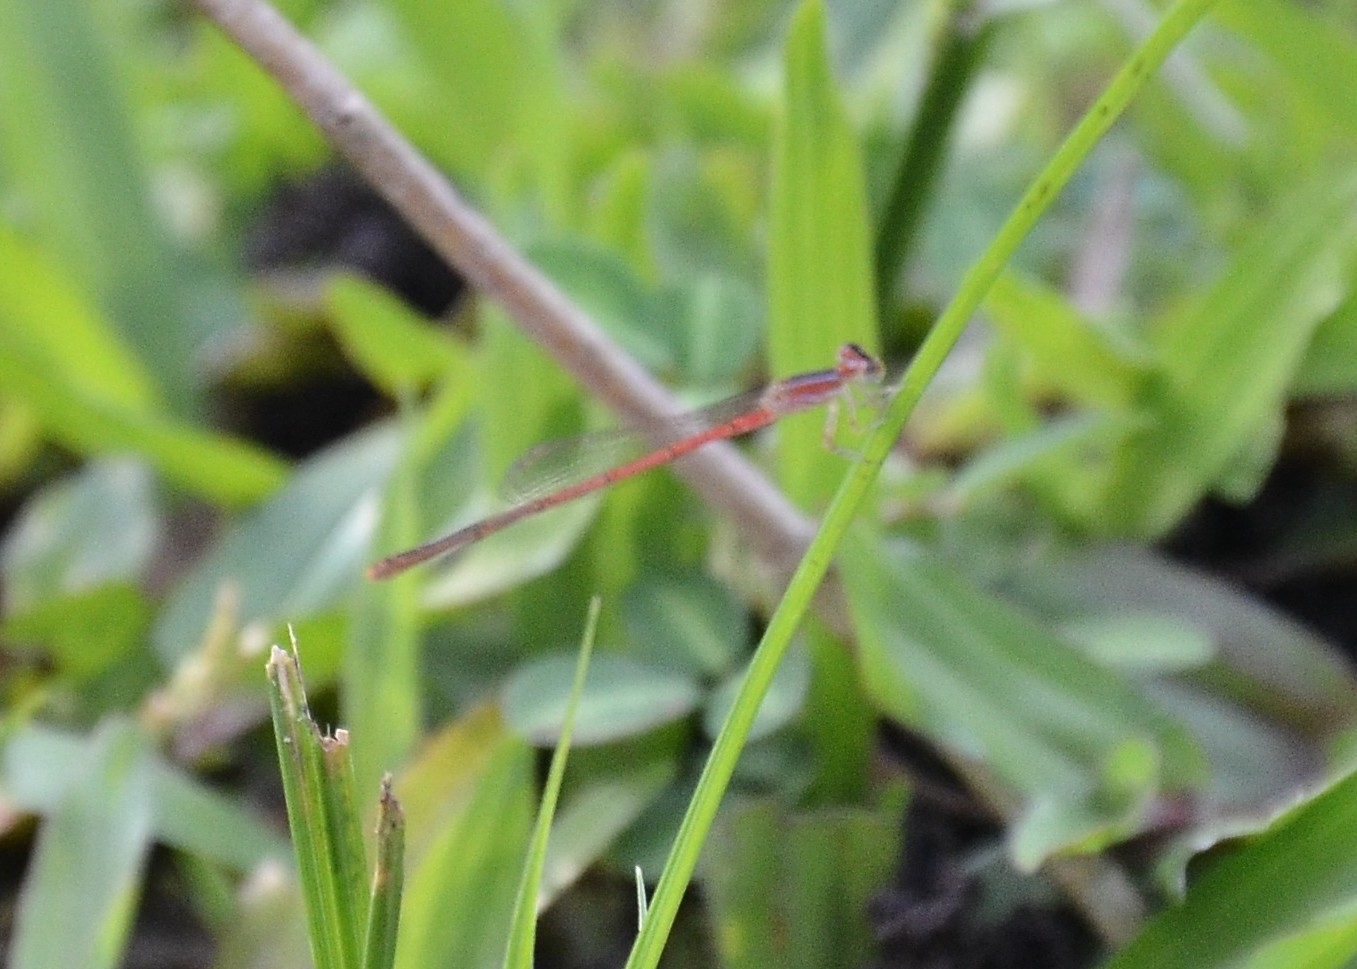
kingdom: Animalia
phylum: Arthropoda
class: Insecta
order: Odonata
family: Coenagrionidae
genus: Agriocnemis
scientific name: Agriocnemis pygmaea
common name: Pygmy wisp
